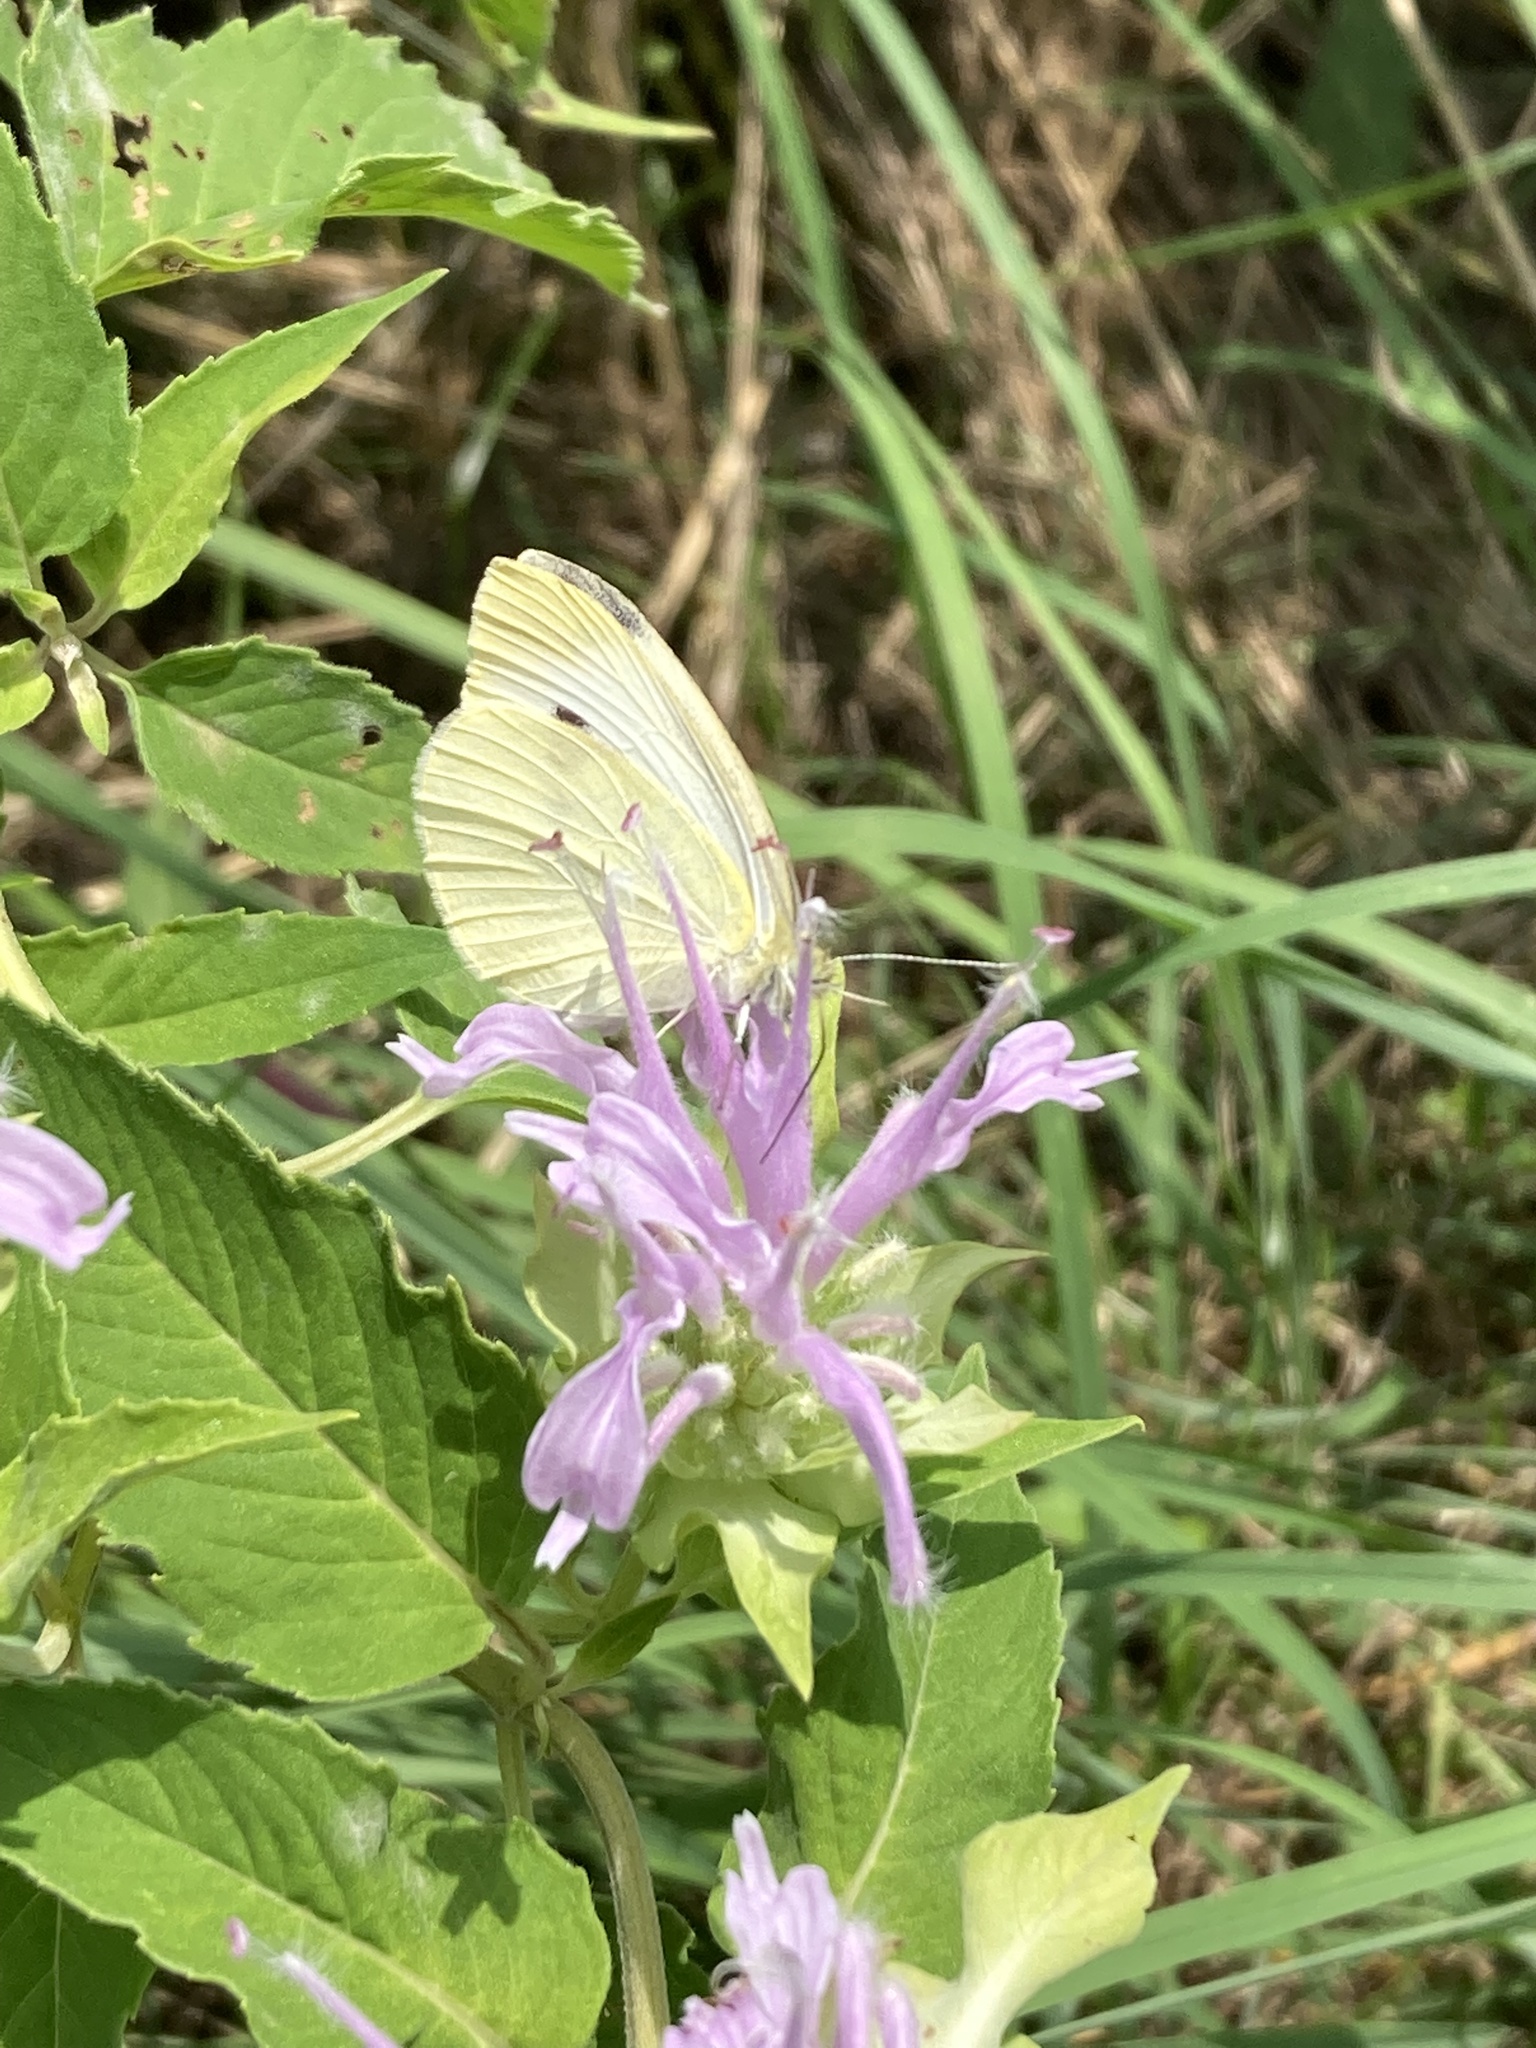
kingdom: Animalia
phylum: Arthropoda
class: Insecta
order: Lepidoptera
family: Pieridae
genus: Pieris
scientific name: Pieris rapae
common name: Small white
